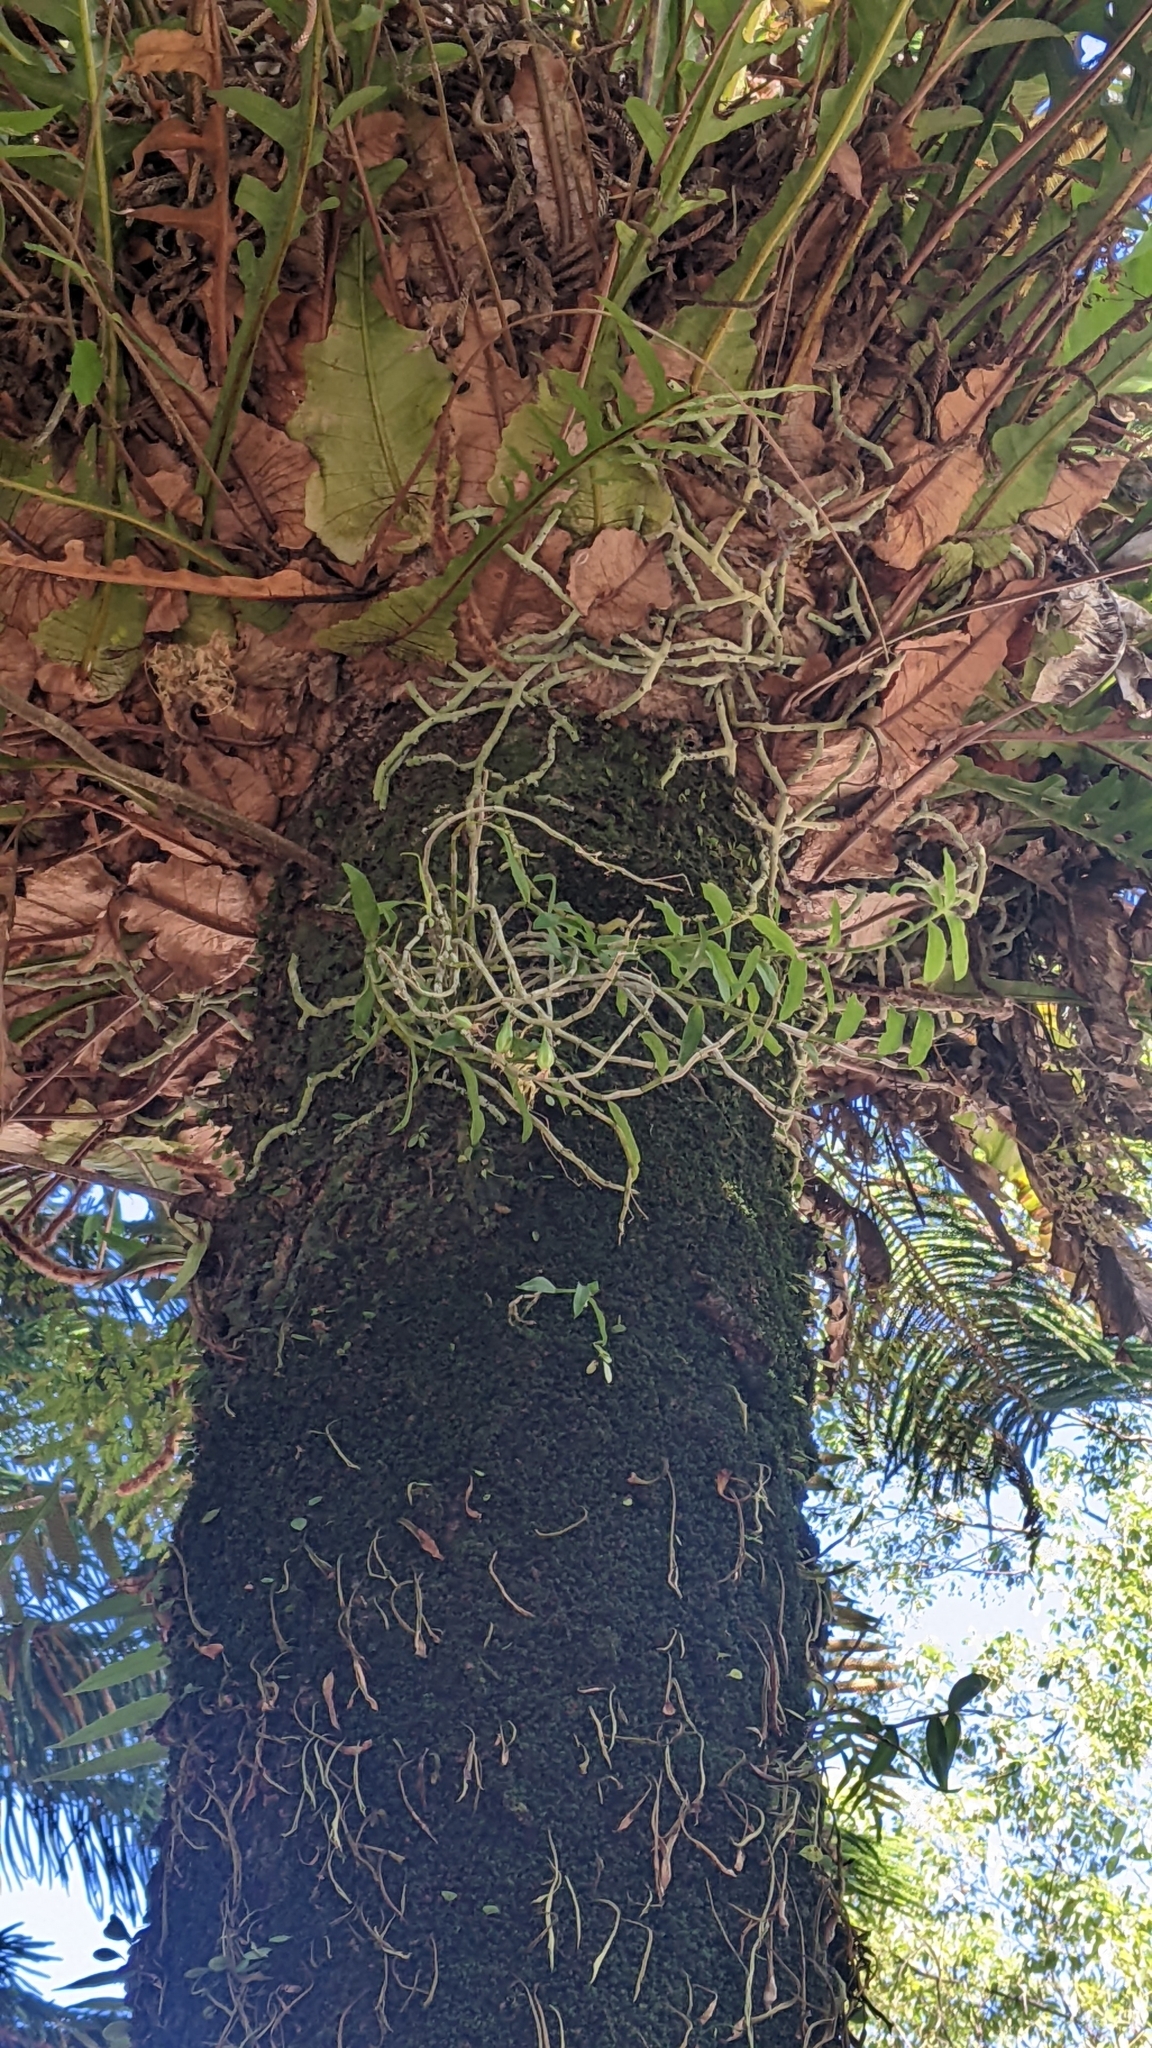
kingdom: Plantae
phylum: Tracheophyta
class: Liliopsida
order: Asparagales
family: Orchidaceae
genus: Dendrobium
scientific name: Dendrobium officinale
